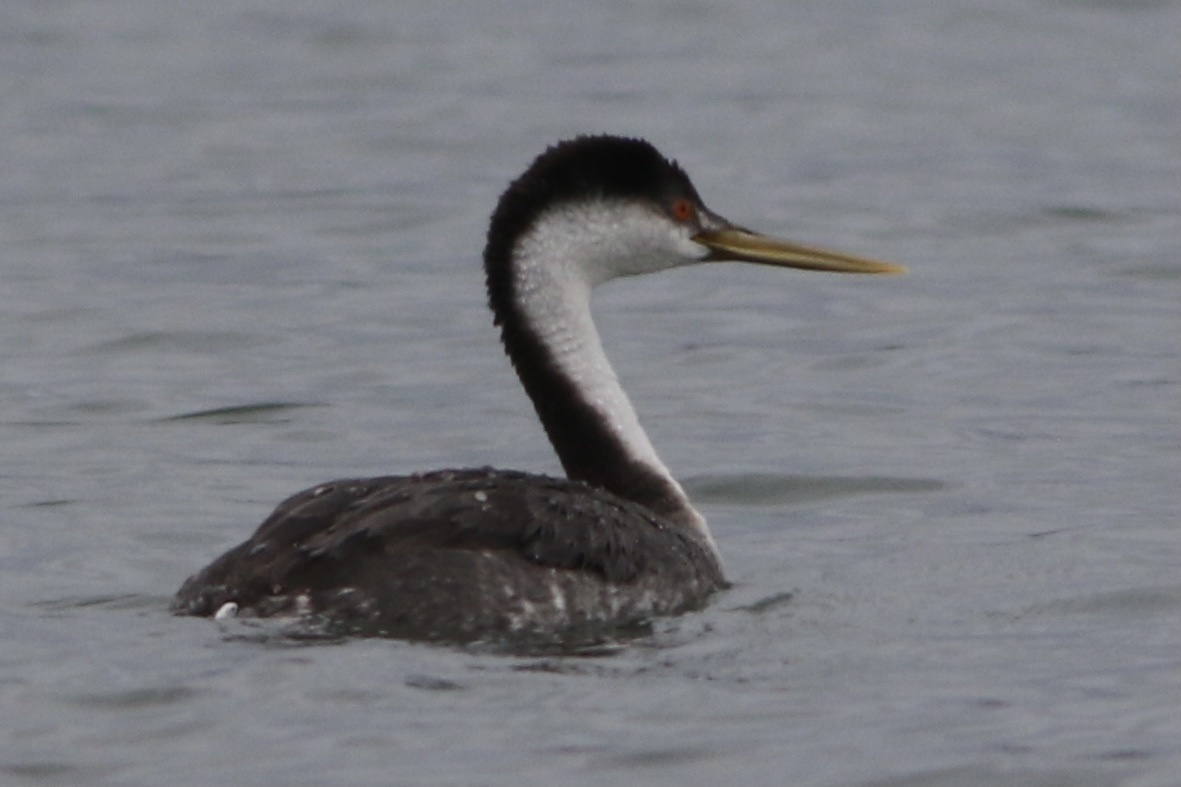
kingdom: Animalia
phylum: Chordata
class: Aves
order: Podicipediformes
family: Podicipedidae
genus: Aechmophorus
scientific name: Aechmophorus occidentalis
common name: Western grebe
